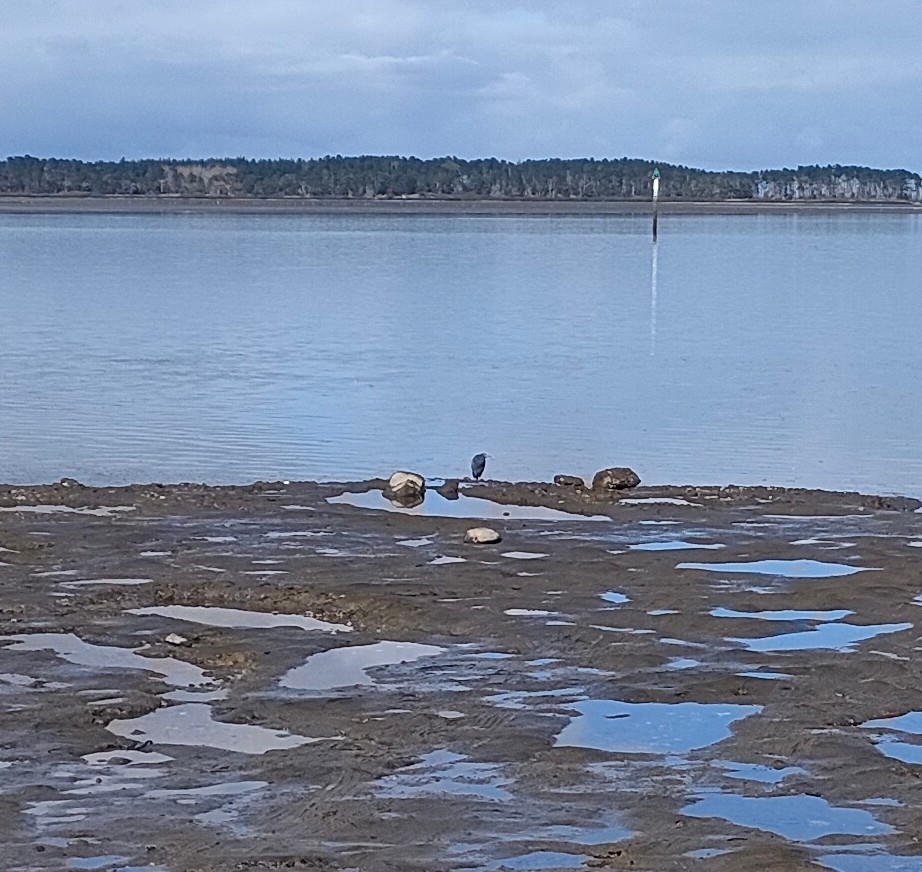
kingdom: Animalia
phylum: Chordata
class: Aves
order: Pelecaniformes
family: Ardeidae
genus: Egretta
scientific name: Egretta sacra
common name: Pacific reef heron
